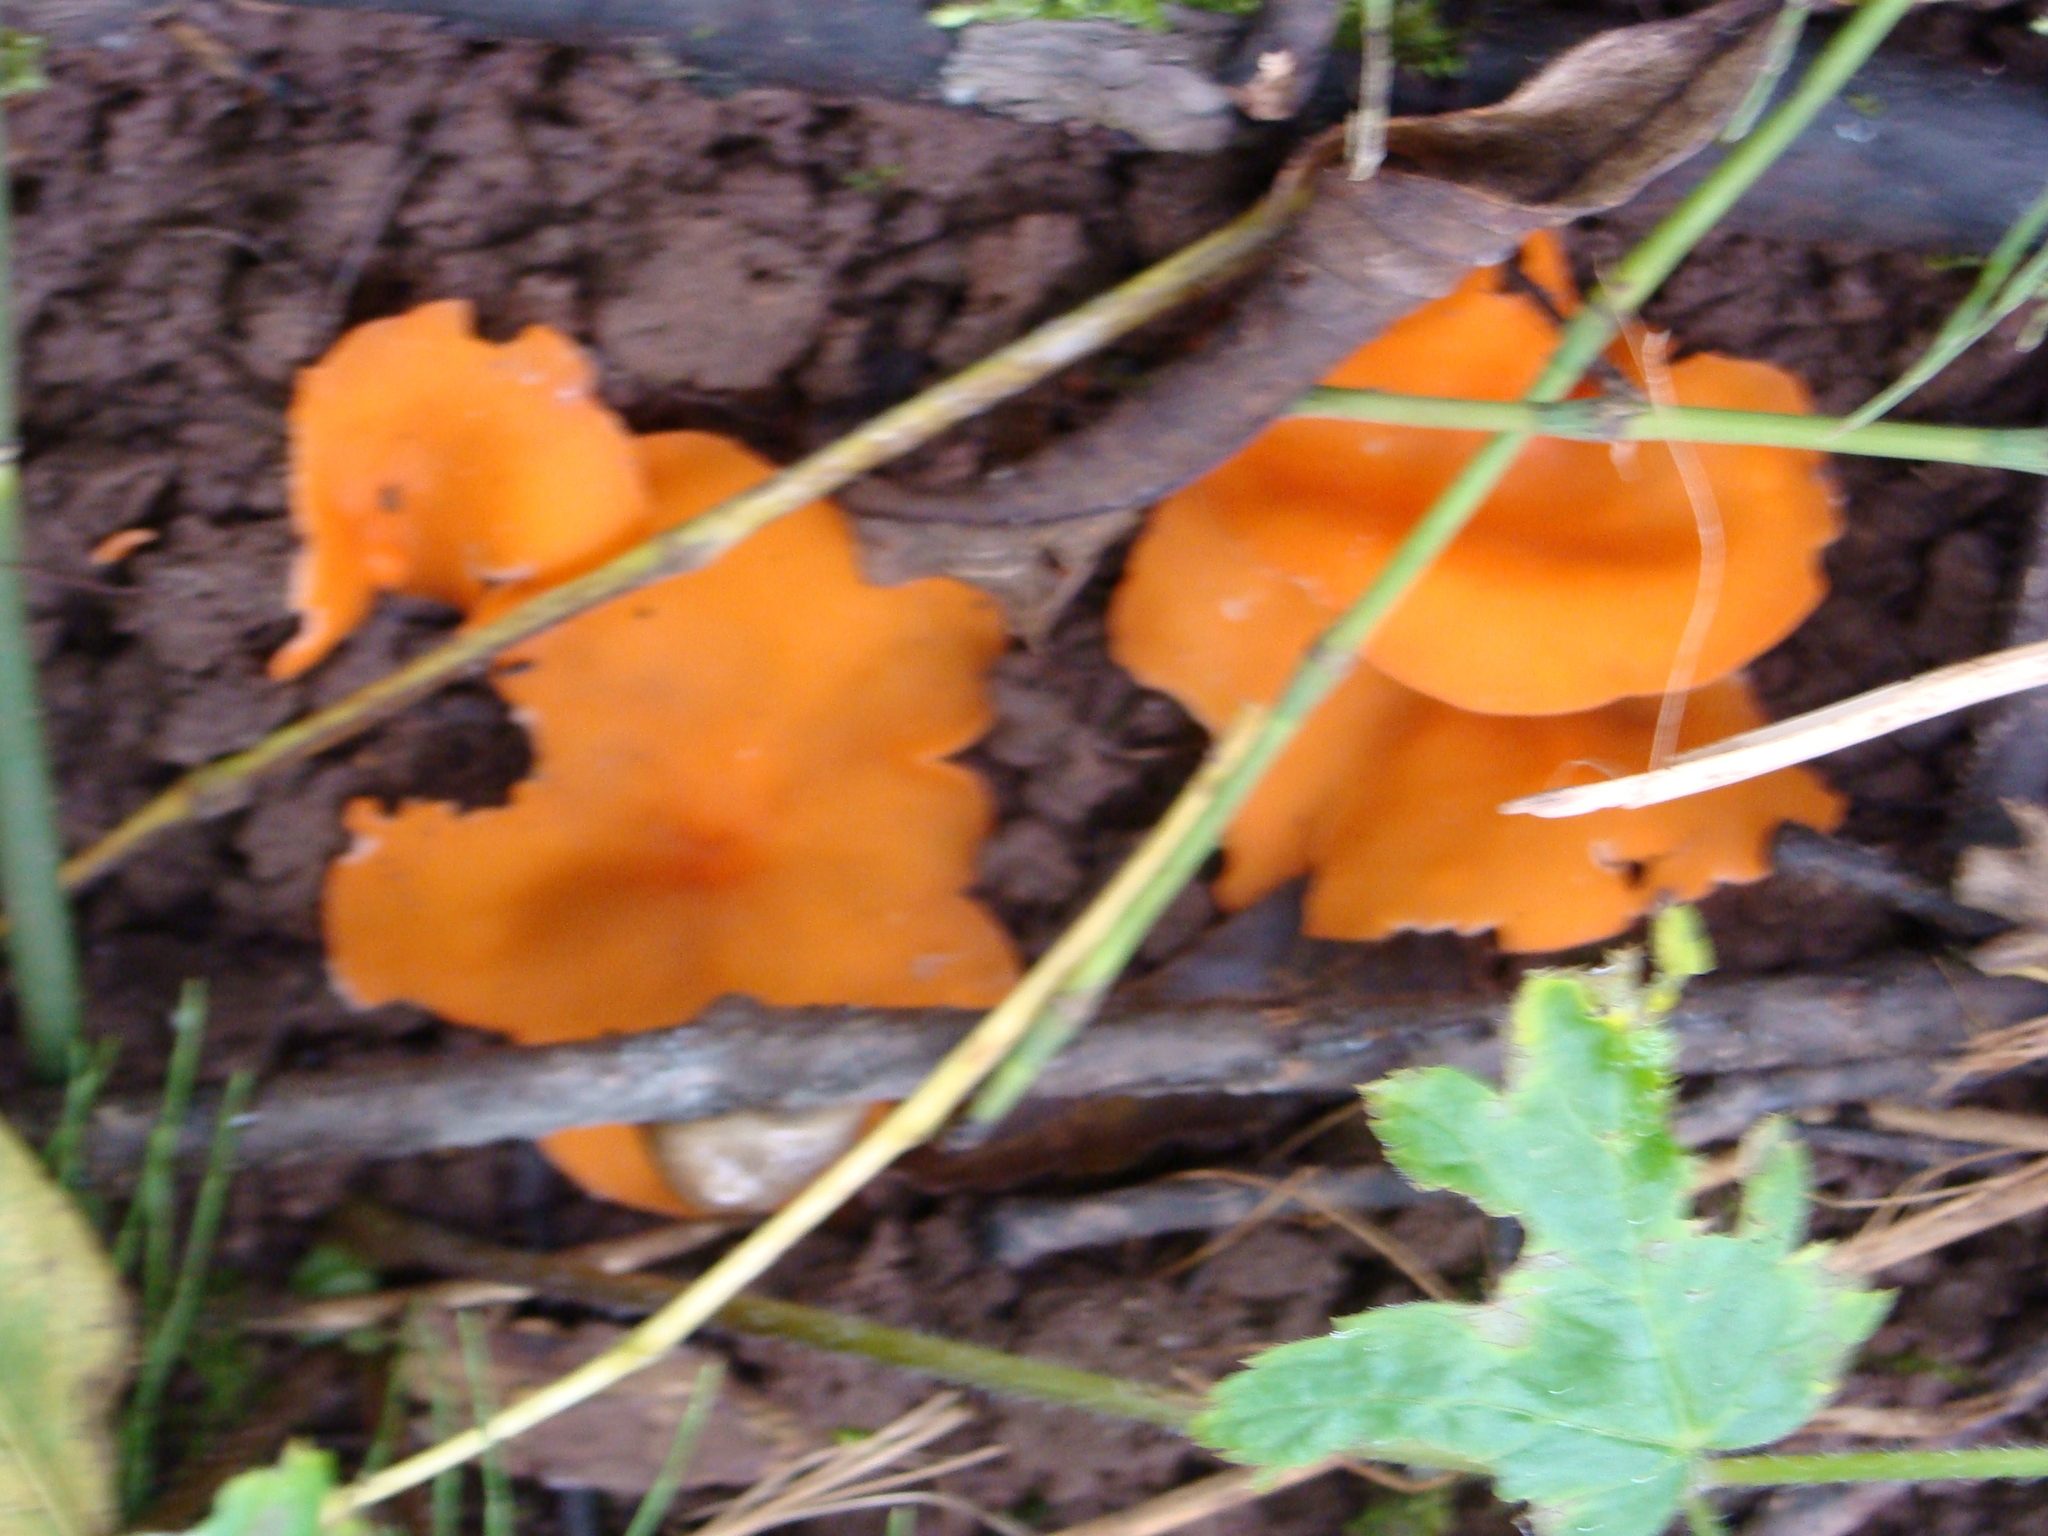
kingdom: Fungi
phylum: Ascomycota
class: Pezizomycetes
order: Pezizales
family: Pyronemataceae
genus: Aleuria
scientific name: Aleuria aurantia
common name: Orange peel fungus
